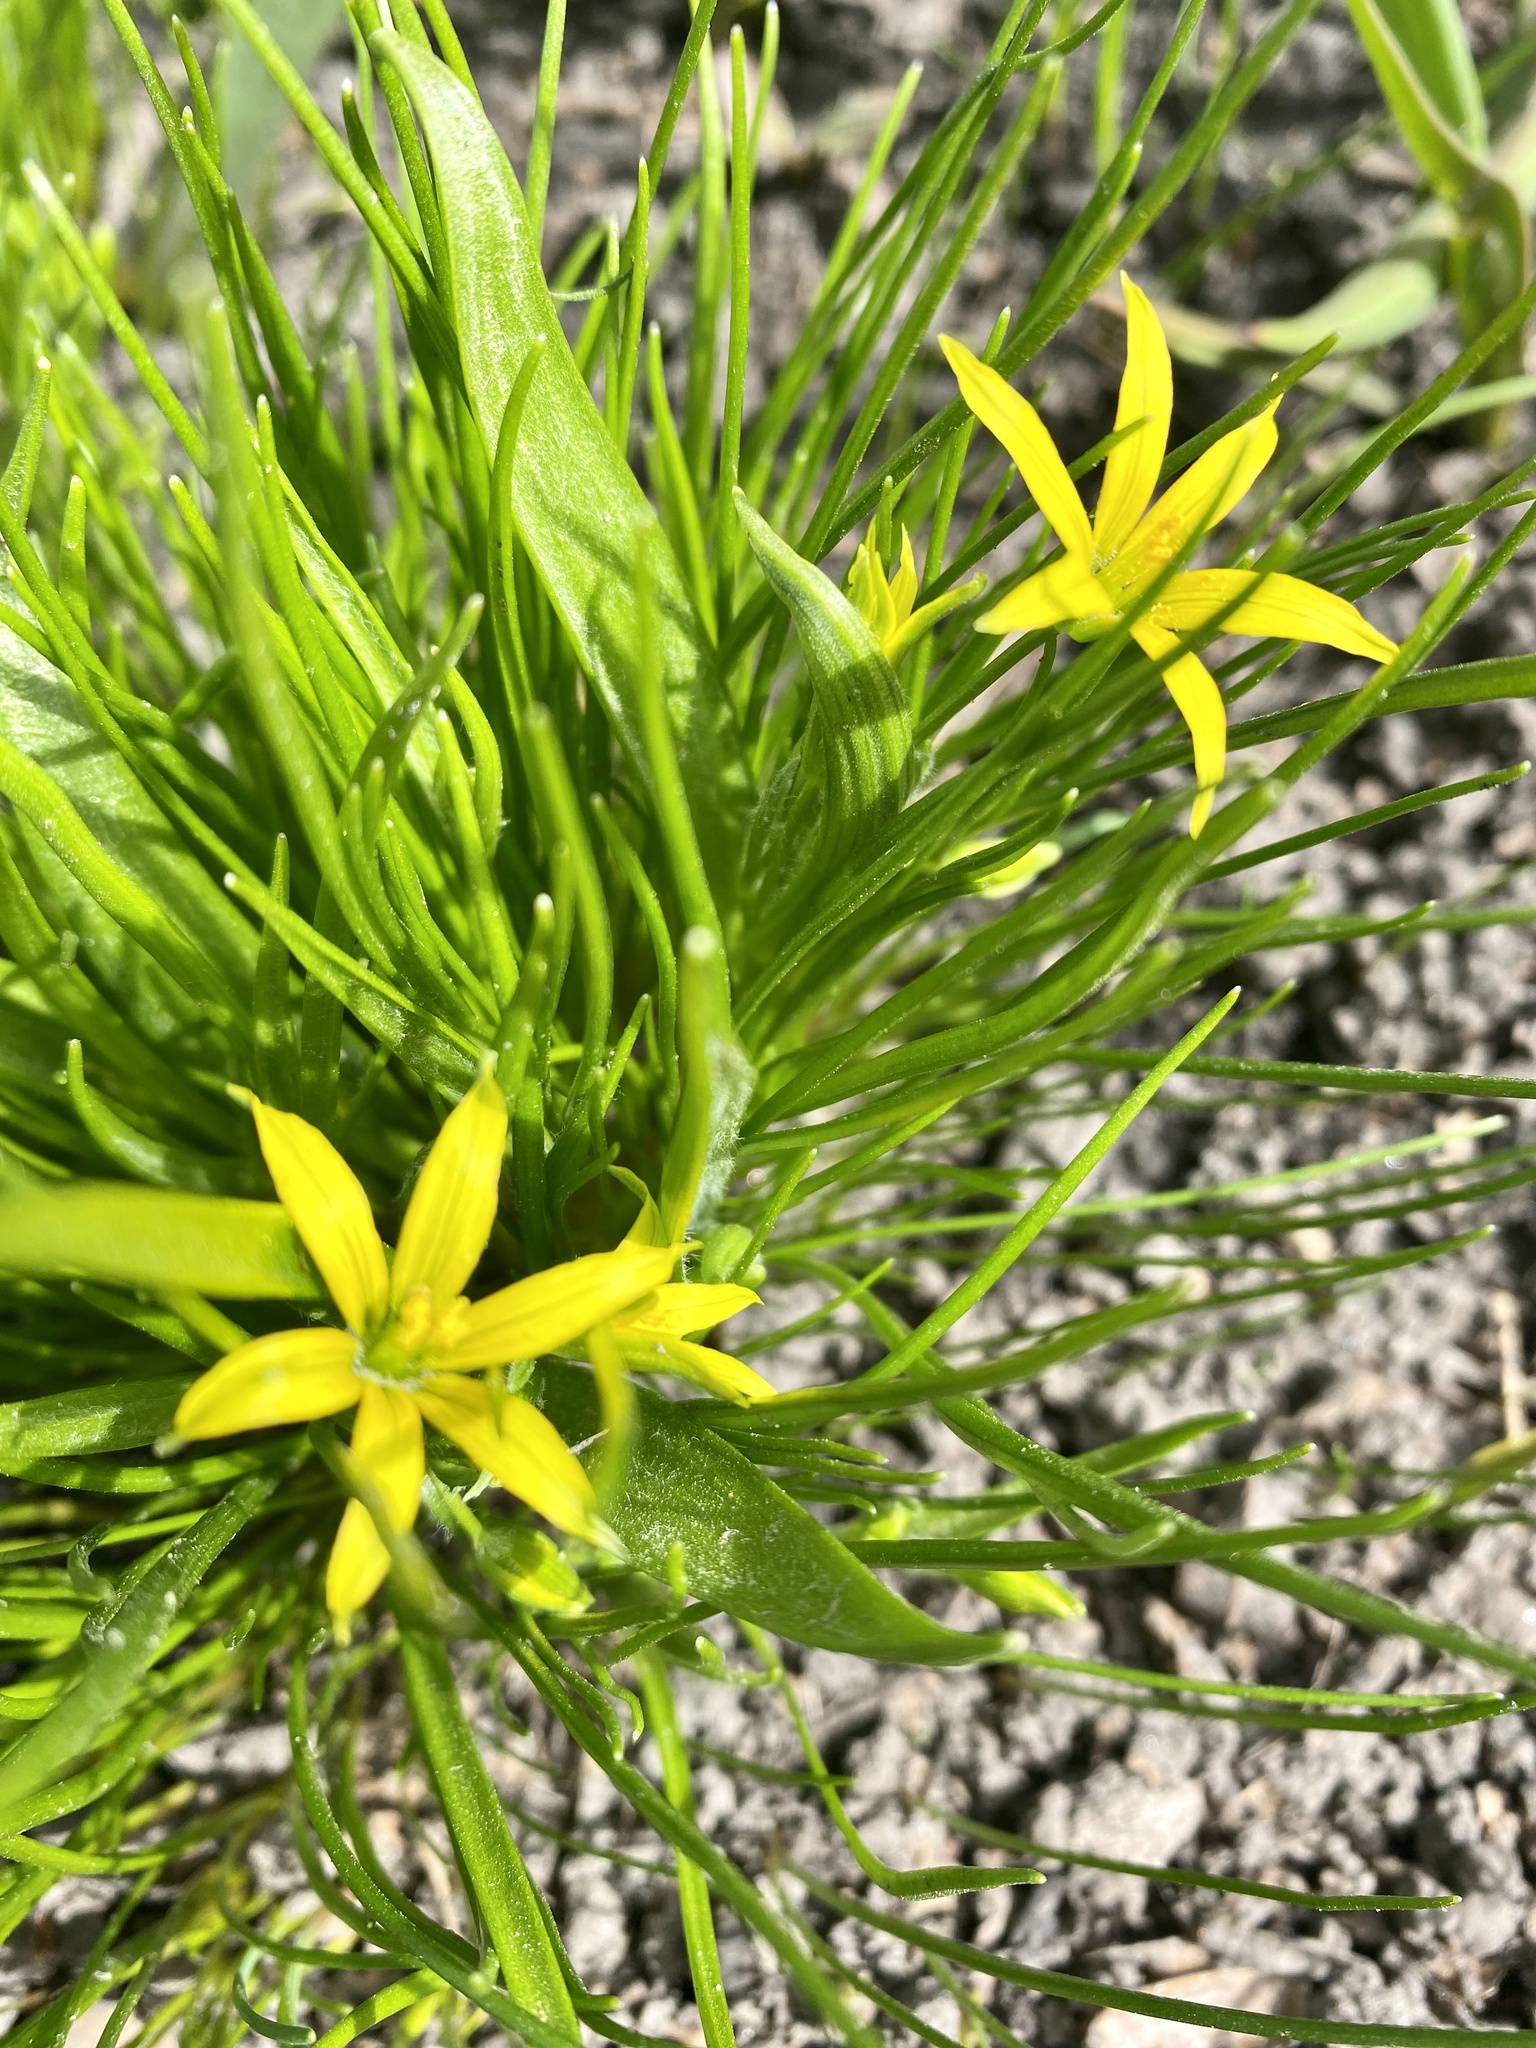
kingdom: Plantae
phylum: Tracheophyta
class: Liliopsida
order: Liliales
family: Liliaceae
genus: Gagea
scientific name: Gagea minima
